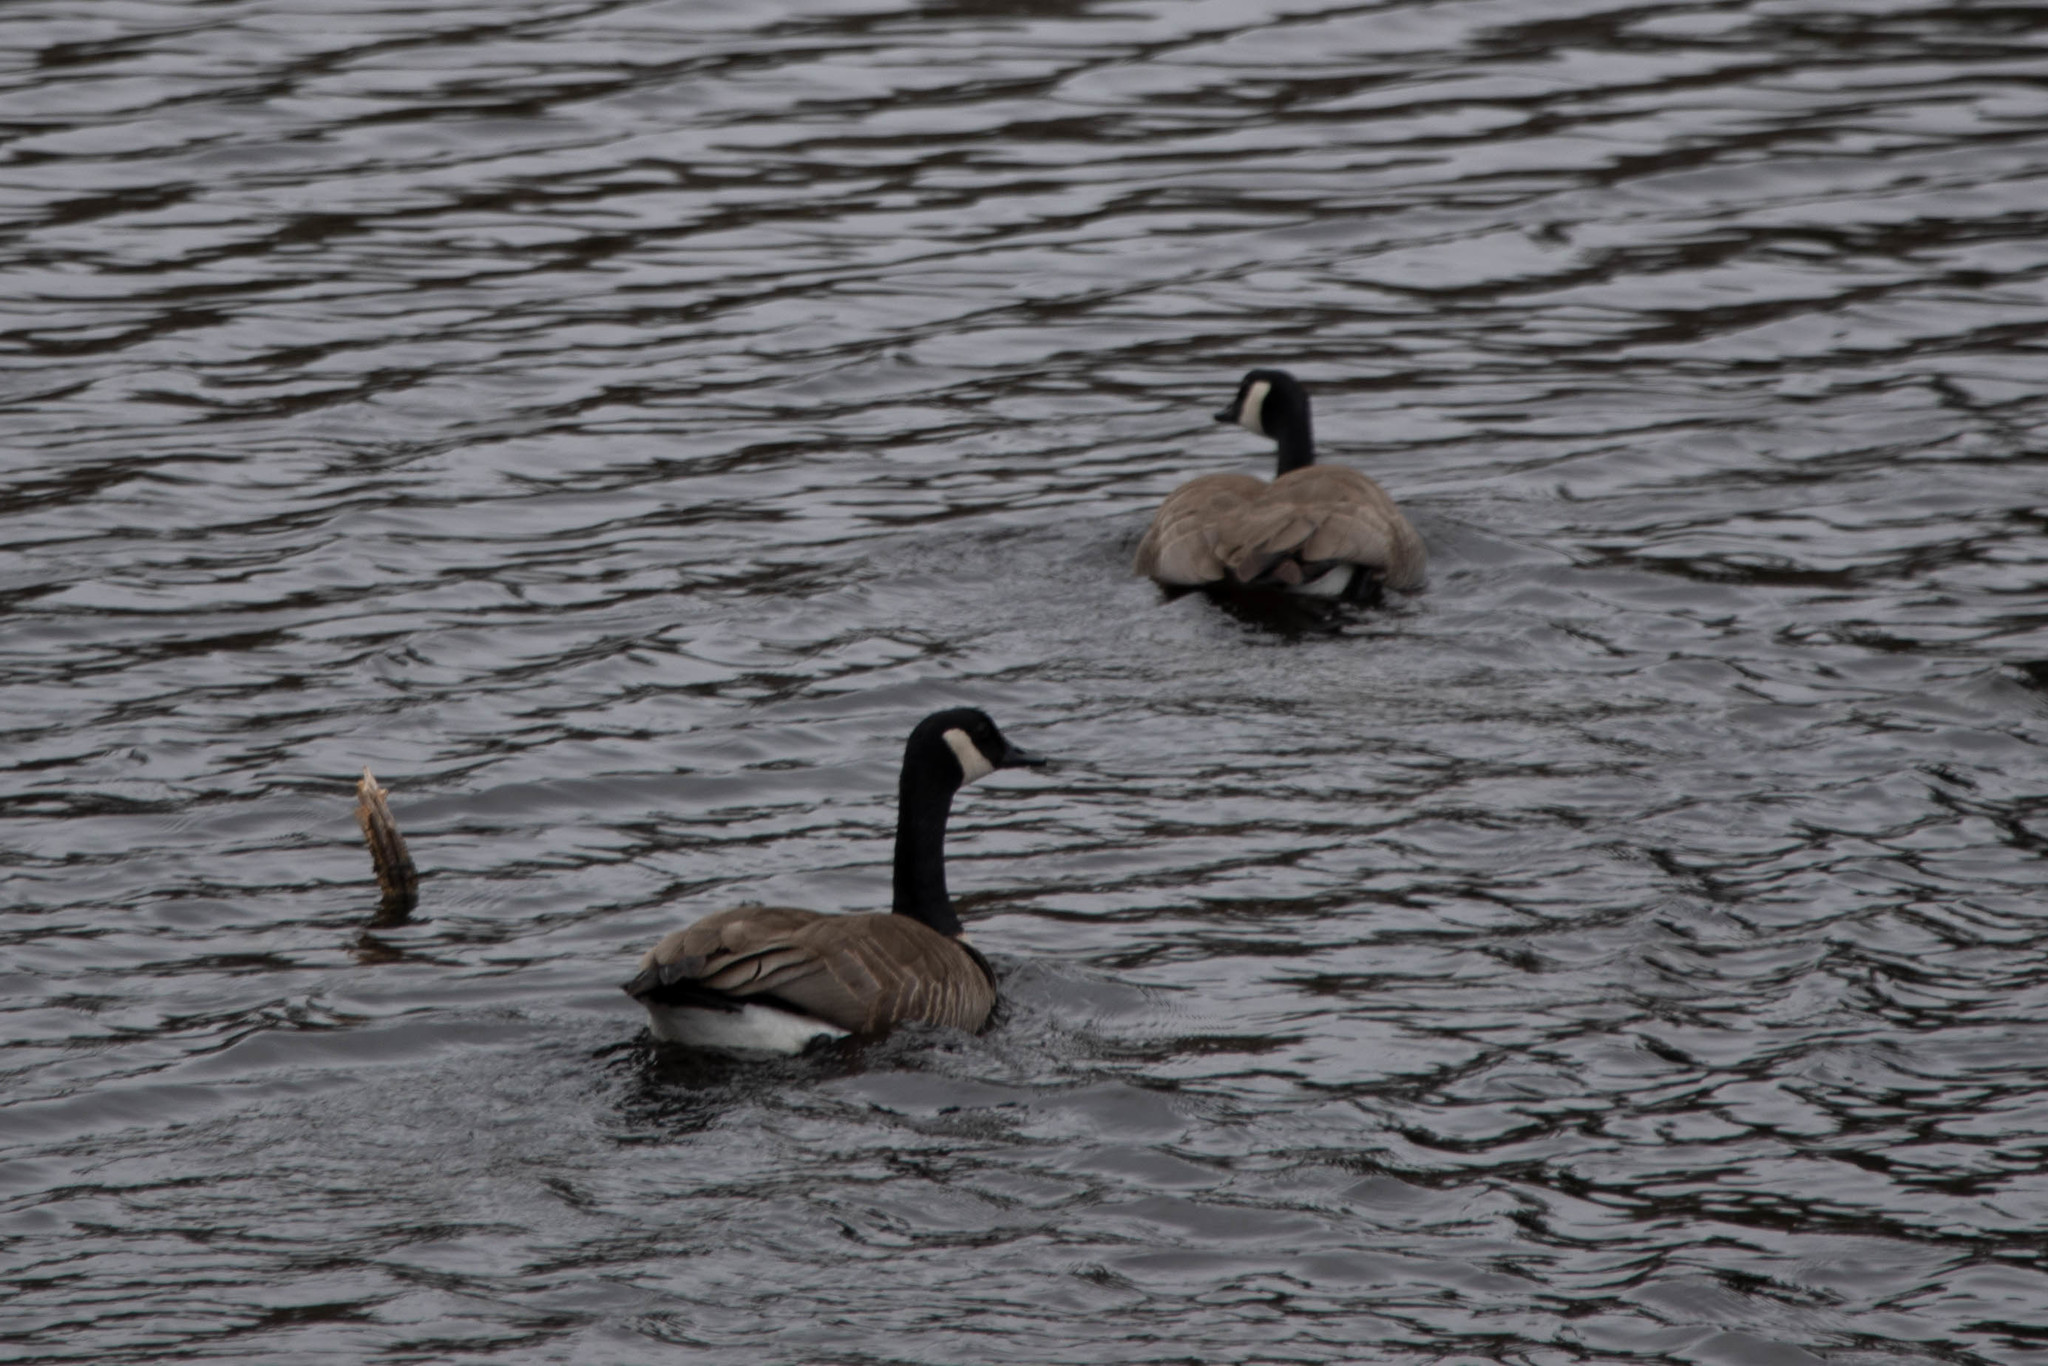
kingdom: Animalia
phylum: Chordata
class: Aves
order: Anseriformes
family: Anatidae
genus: Branta
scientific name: Branta canadensis
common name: Canada goose
